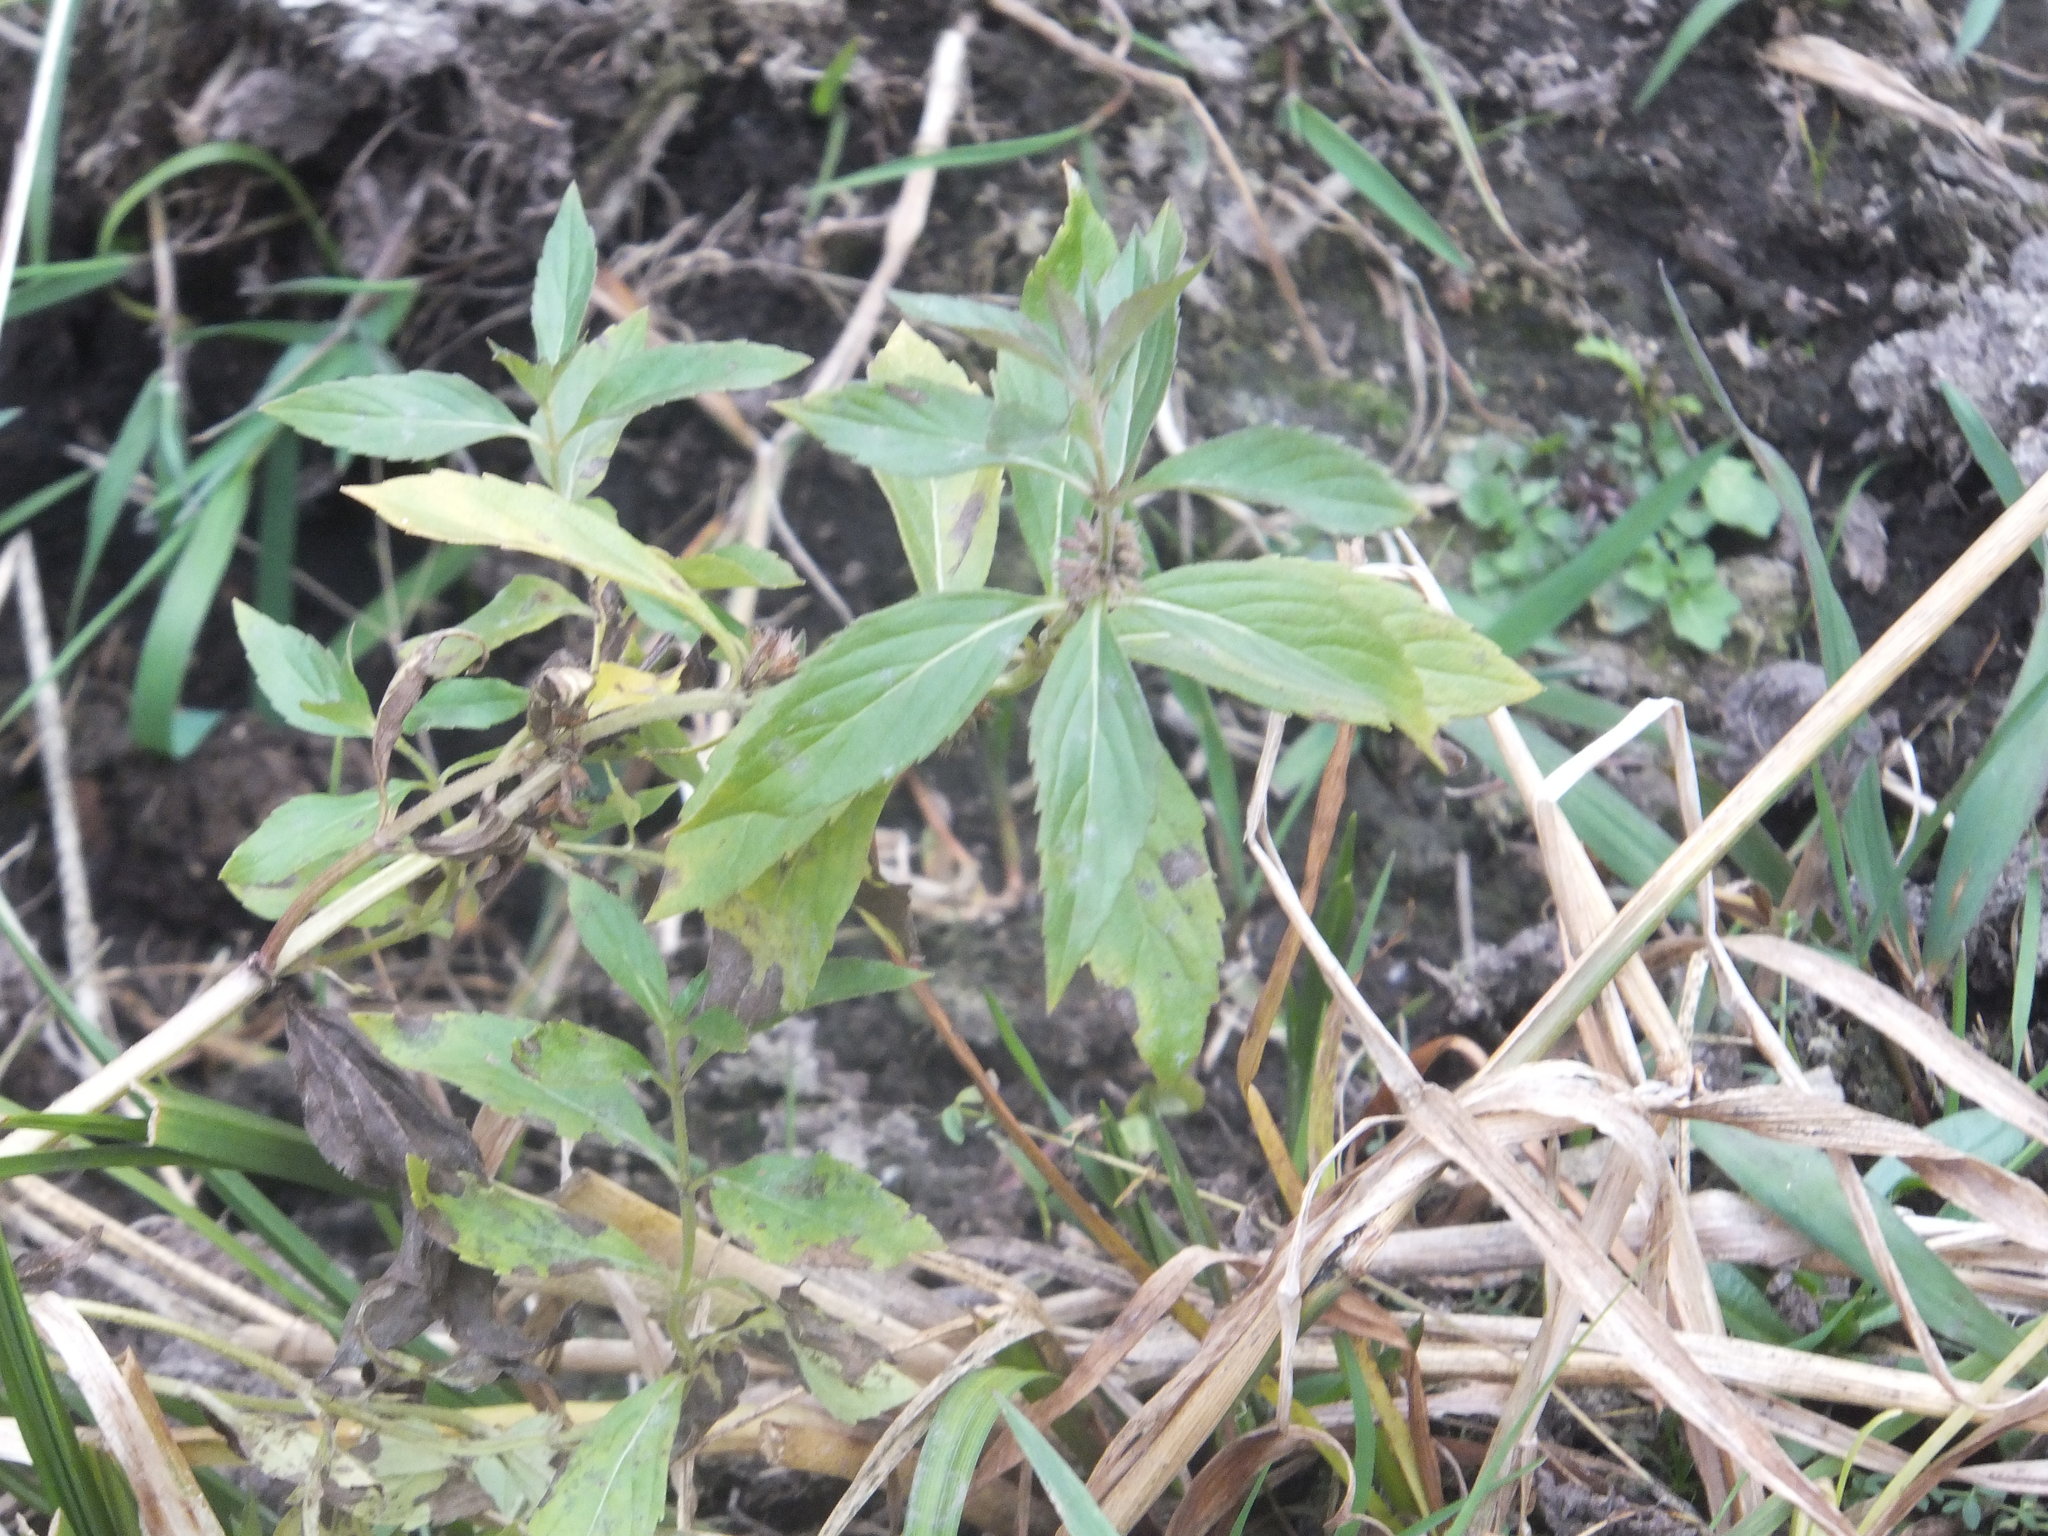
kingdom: Plantae
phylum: Tracheophyta
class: Magnoliopsida
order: Lamiales
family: Lamiaceae
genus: Mentha
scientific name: Mentha canadensis
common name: American corn mint
